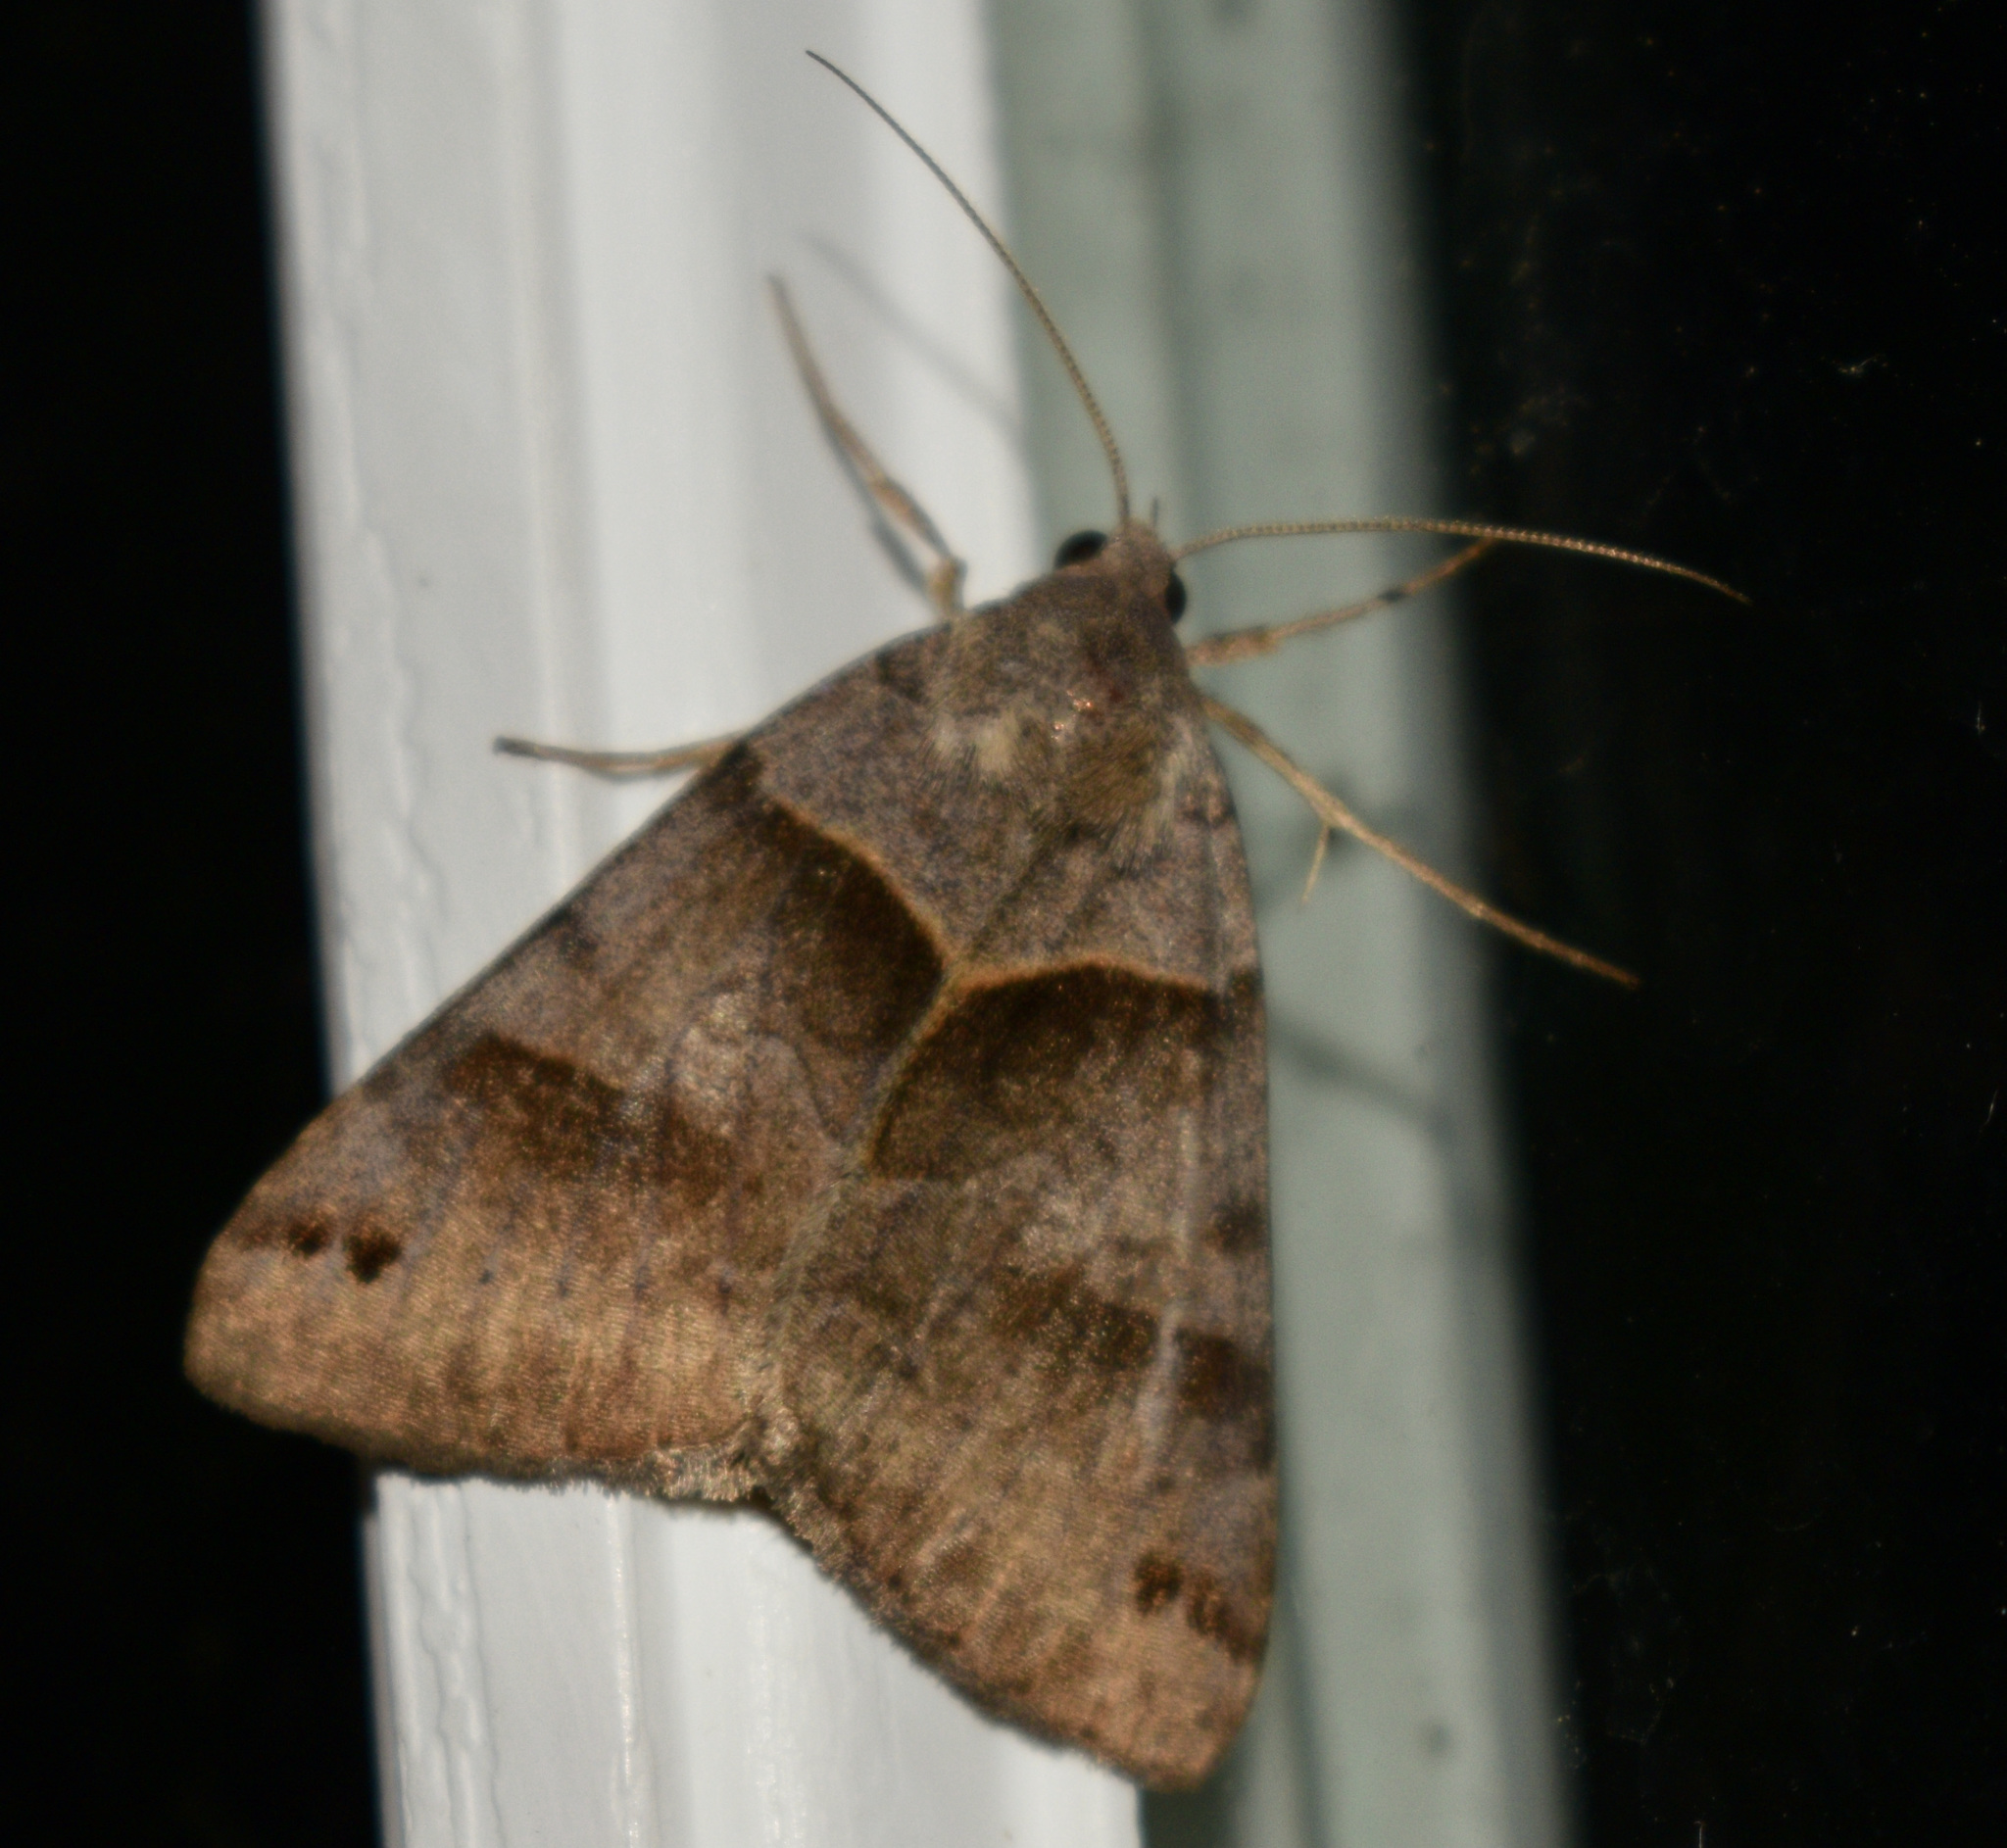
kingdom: Animalia
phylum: Arthropoda
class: Insecta
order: Lepidoptera
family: Erebidae
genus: Caenurgina
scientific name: Caenurgina crassiuscula
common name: Double-barred
